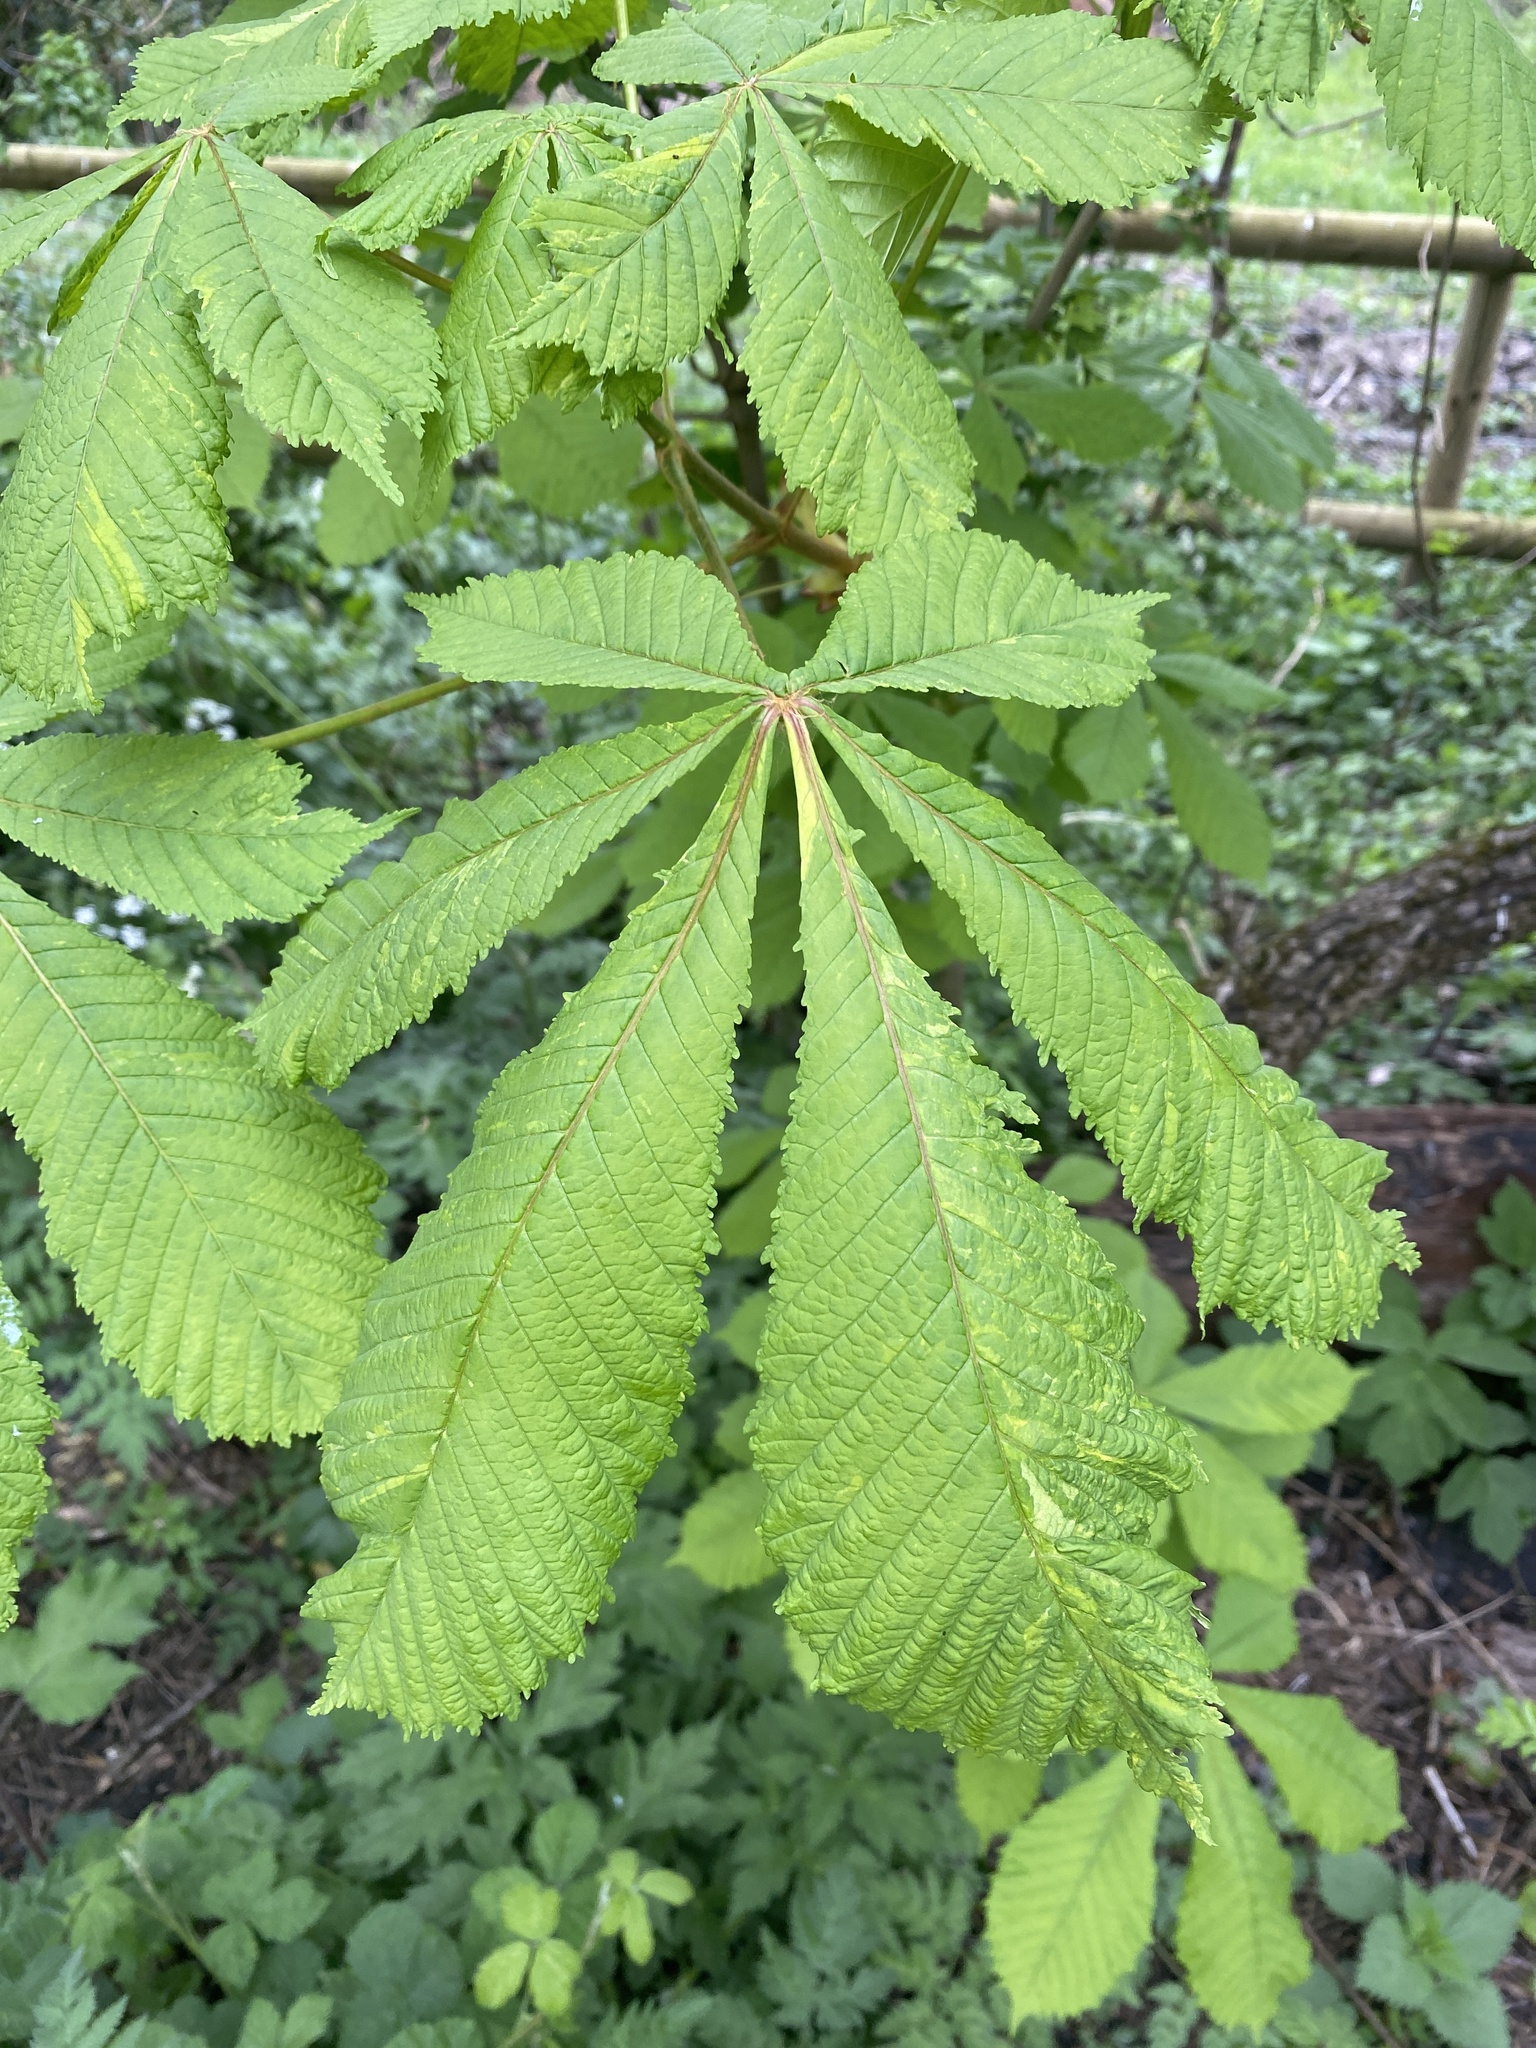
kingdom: Plantae
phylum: Tracheophyta
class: Magnoliopsida
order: Sapindales
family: Sapindaceae
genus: Aesculus
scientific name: Aesculus hippocastanum
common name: Horse-chestnut
